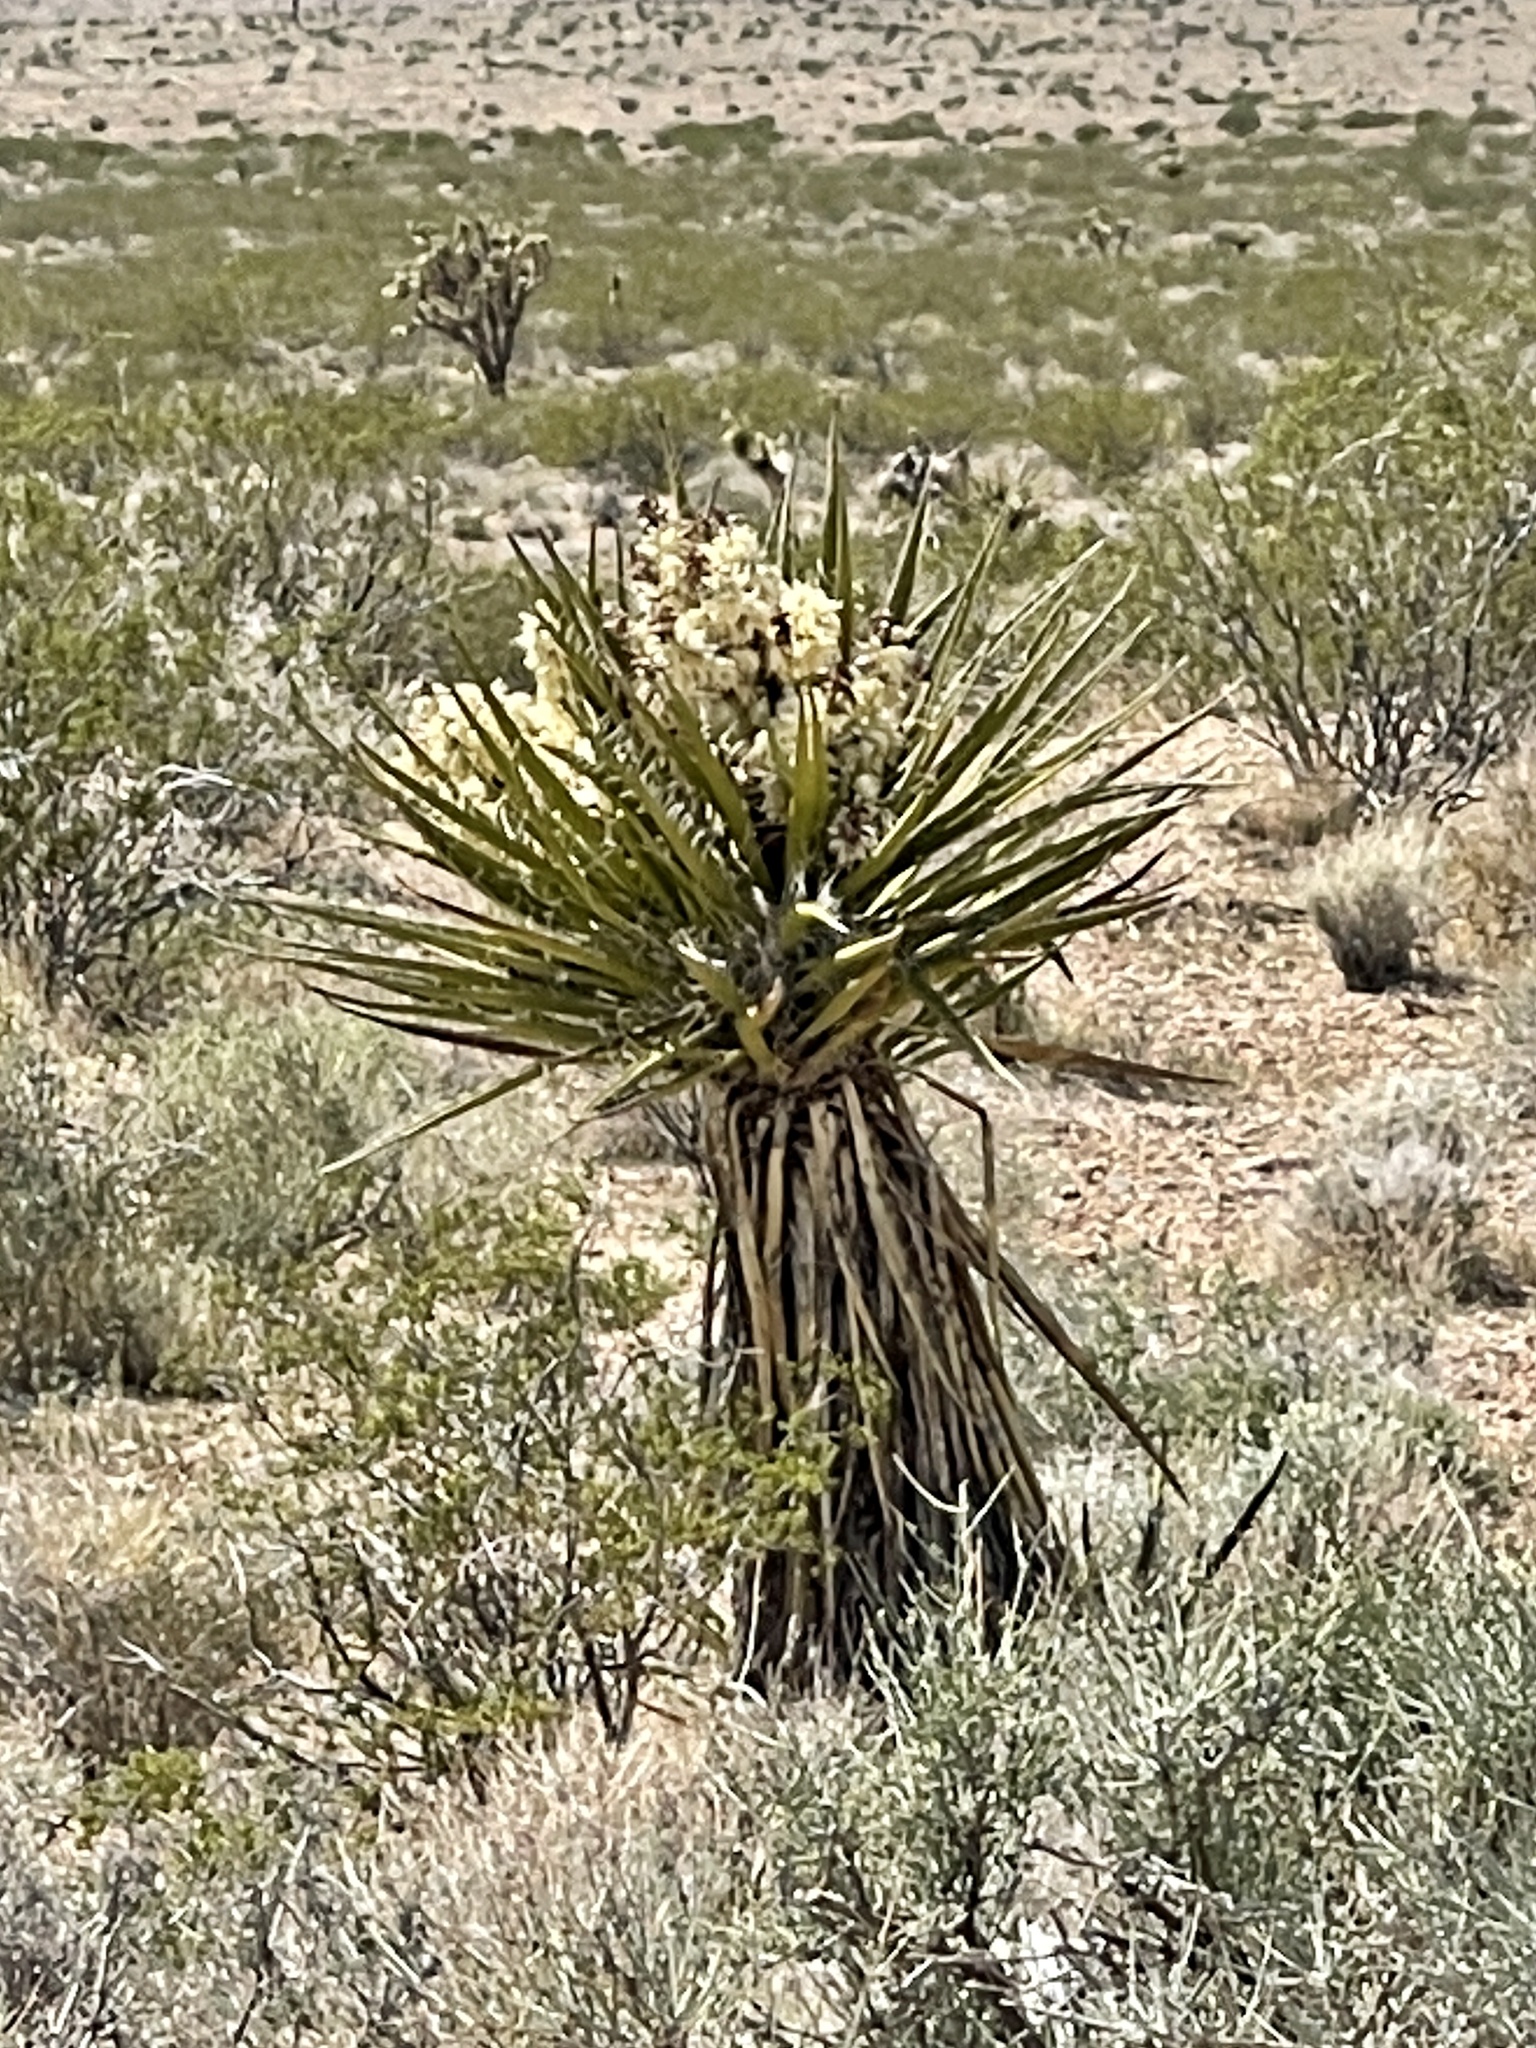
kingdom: Plantae
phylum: Tracheophyta
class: Liliopsida
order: Asparagales
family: Asparagaceae
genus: Yucca
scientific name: Yucca schidigera
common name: Mojave yucca
